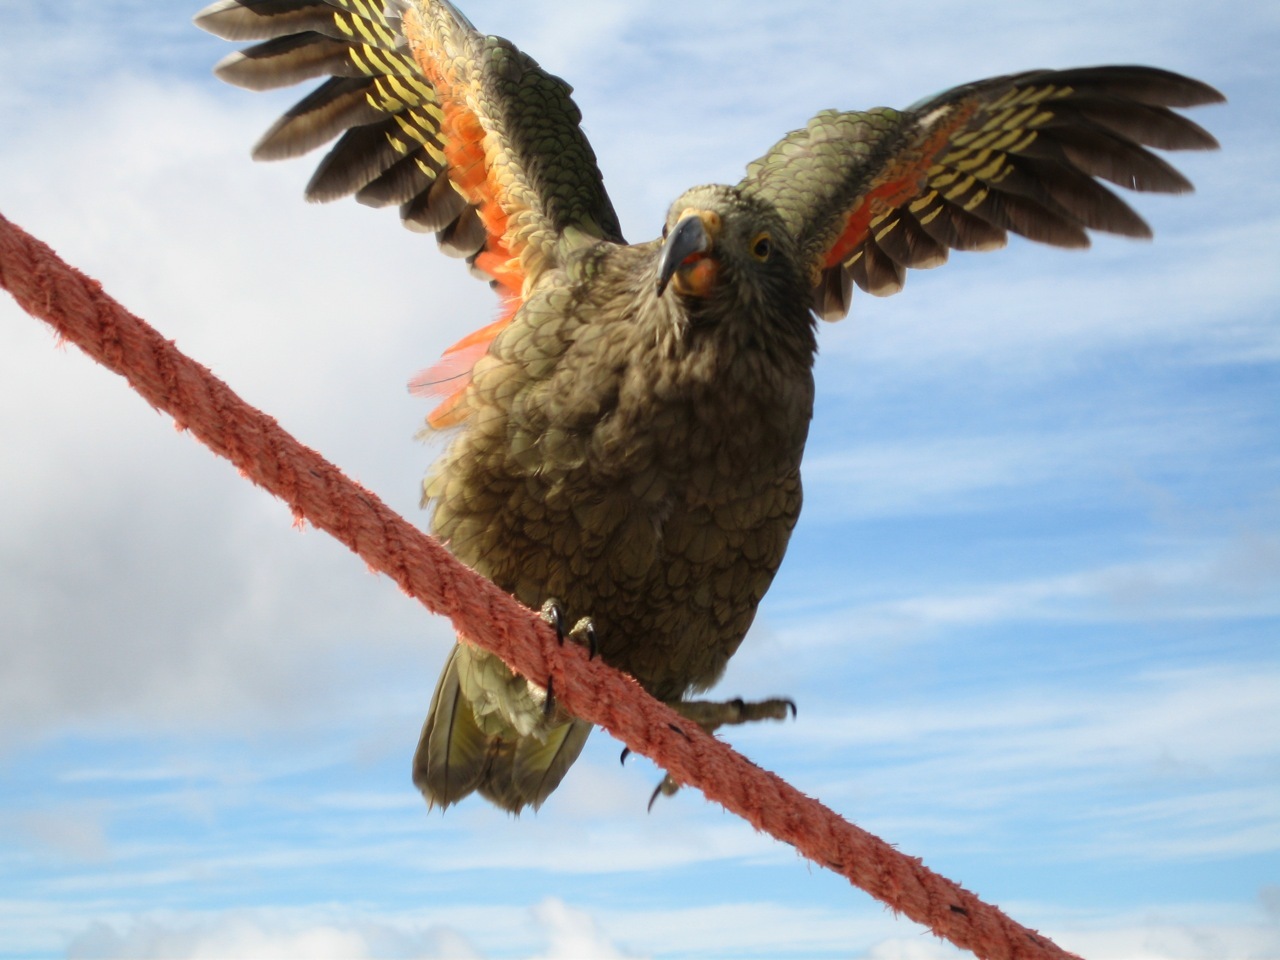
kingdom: Animalia
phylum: Chordata
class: Aves
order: Psittaciformes
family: Psittacidae
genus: Nestor
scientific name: Nestor notabilis
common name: Kea
